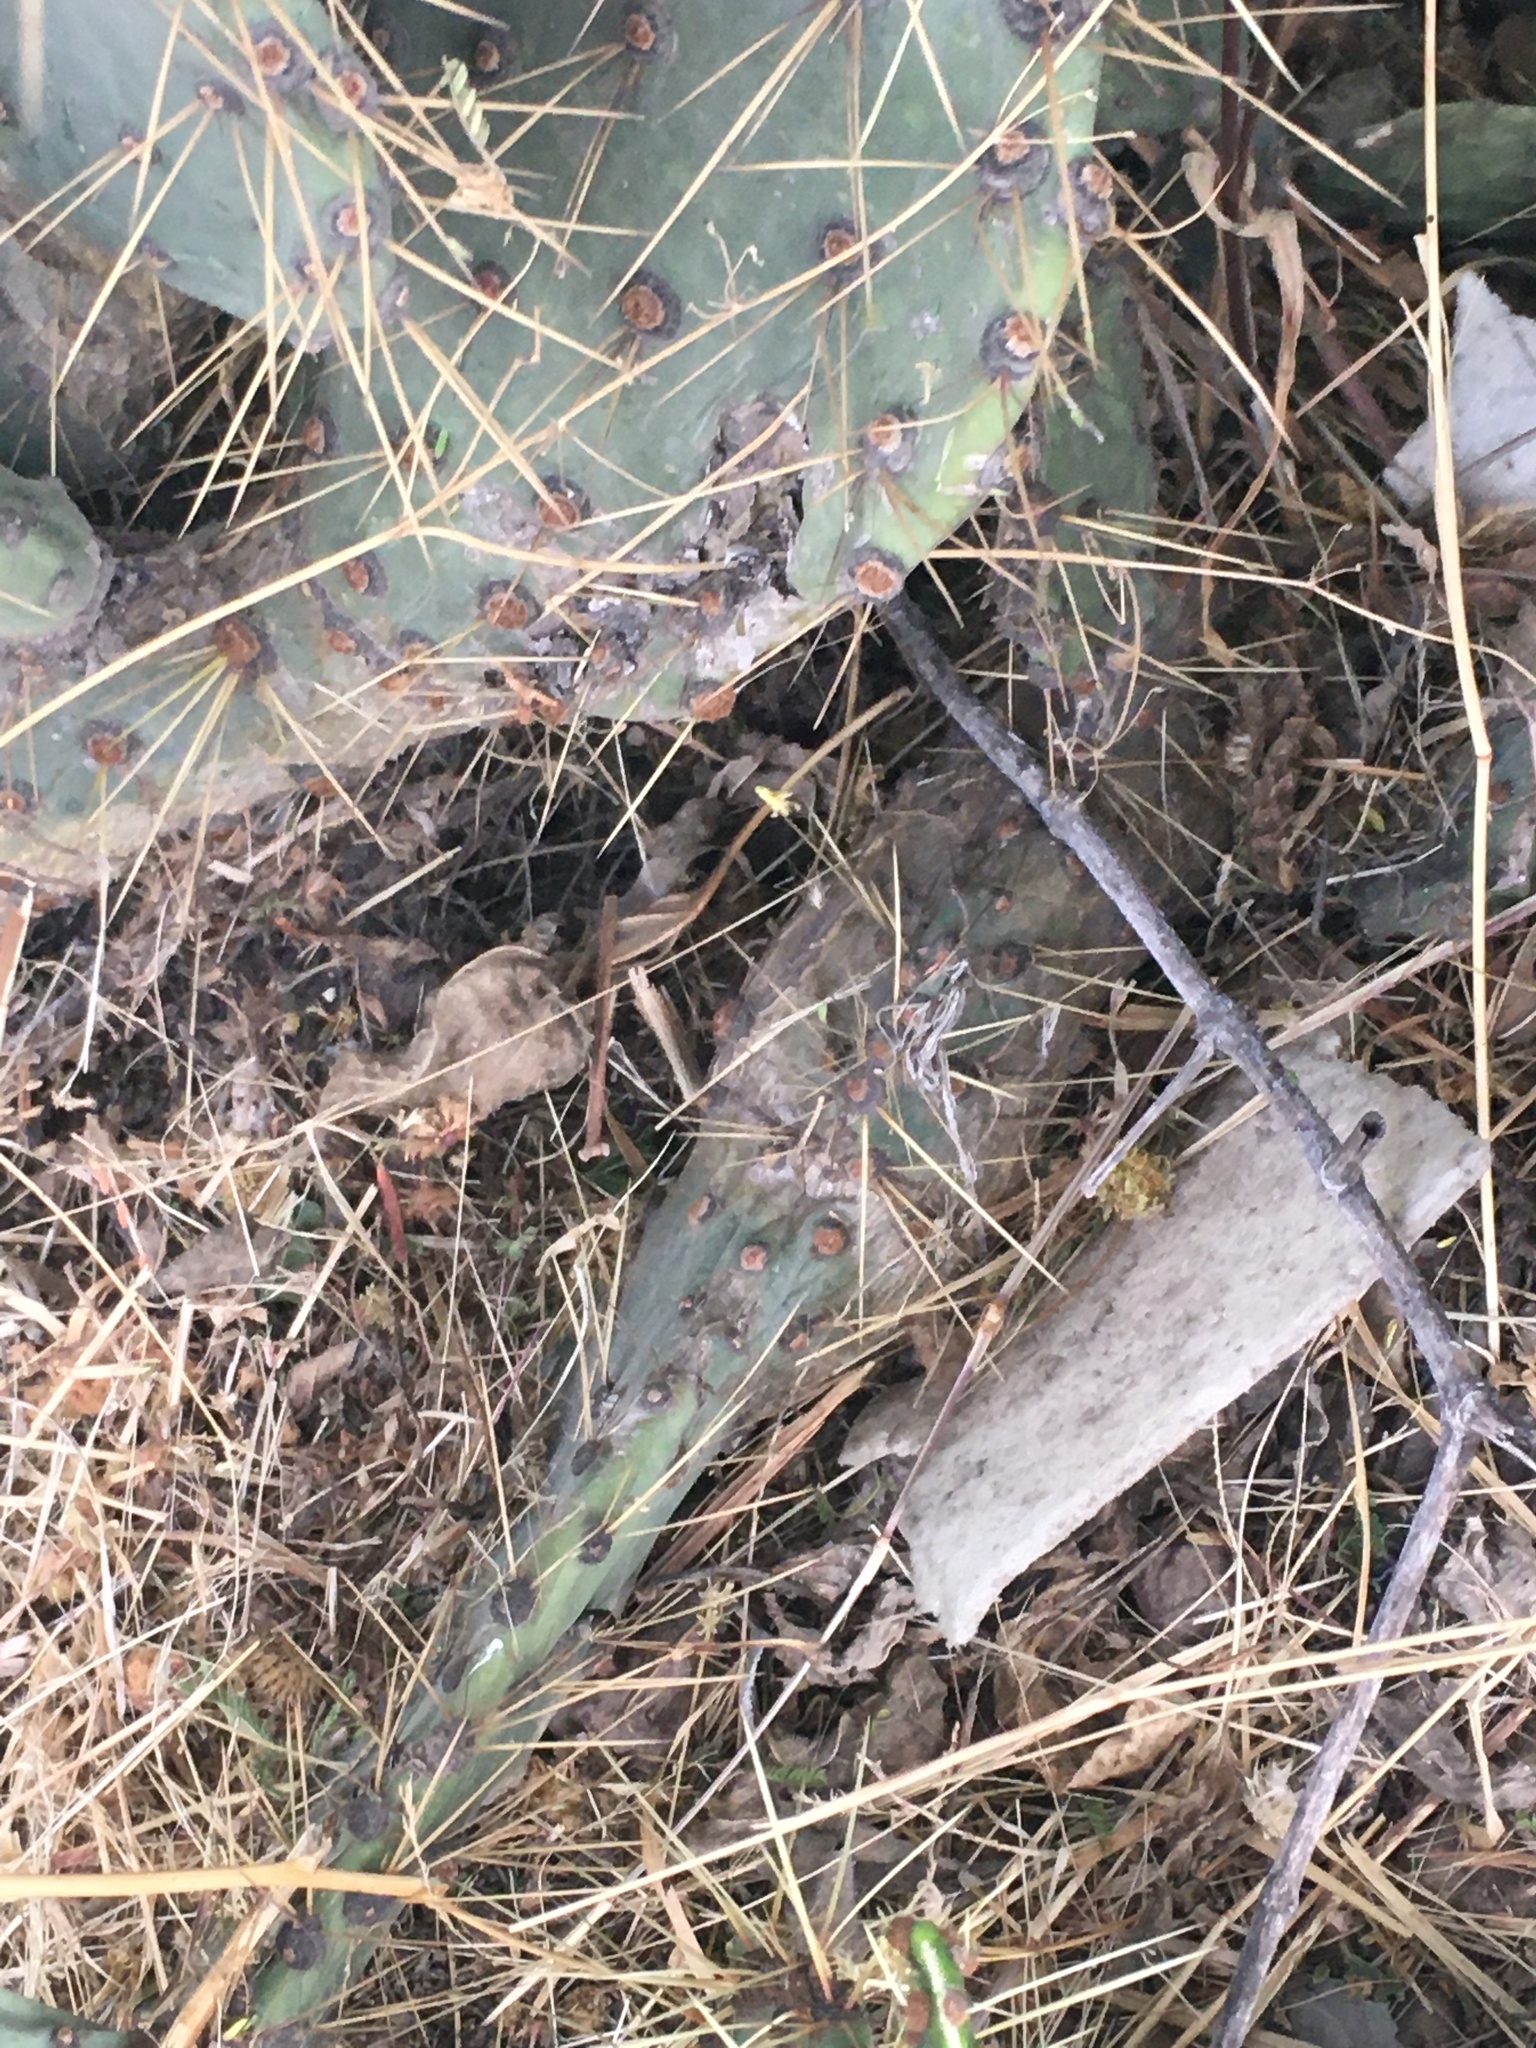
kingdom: Plantae
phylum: Tracheophyta
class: Magnoliopsida
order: Caryophyllales
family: Cactaceae
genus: Opuntia
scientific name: Opuntia engelmannii
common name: Cactus-apple
